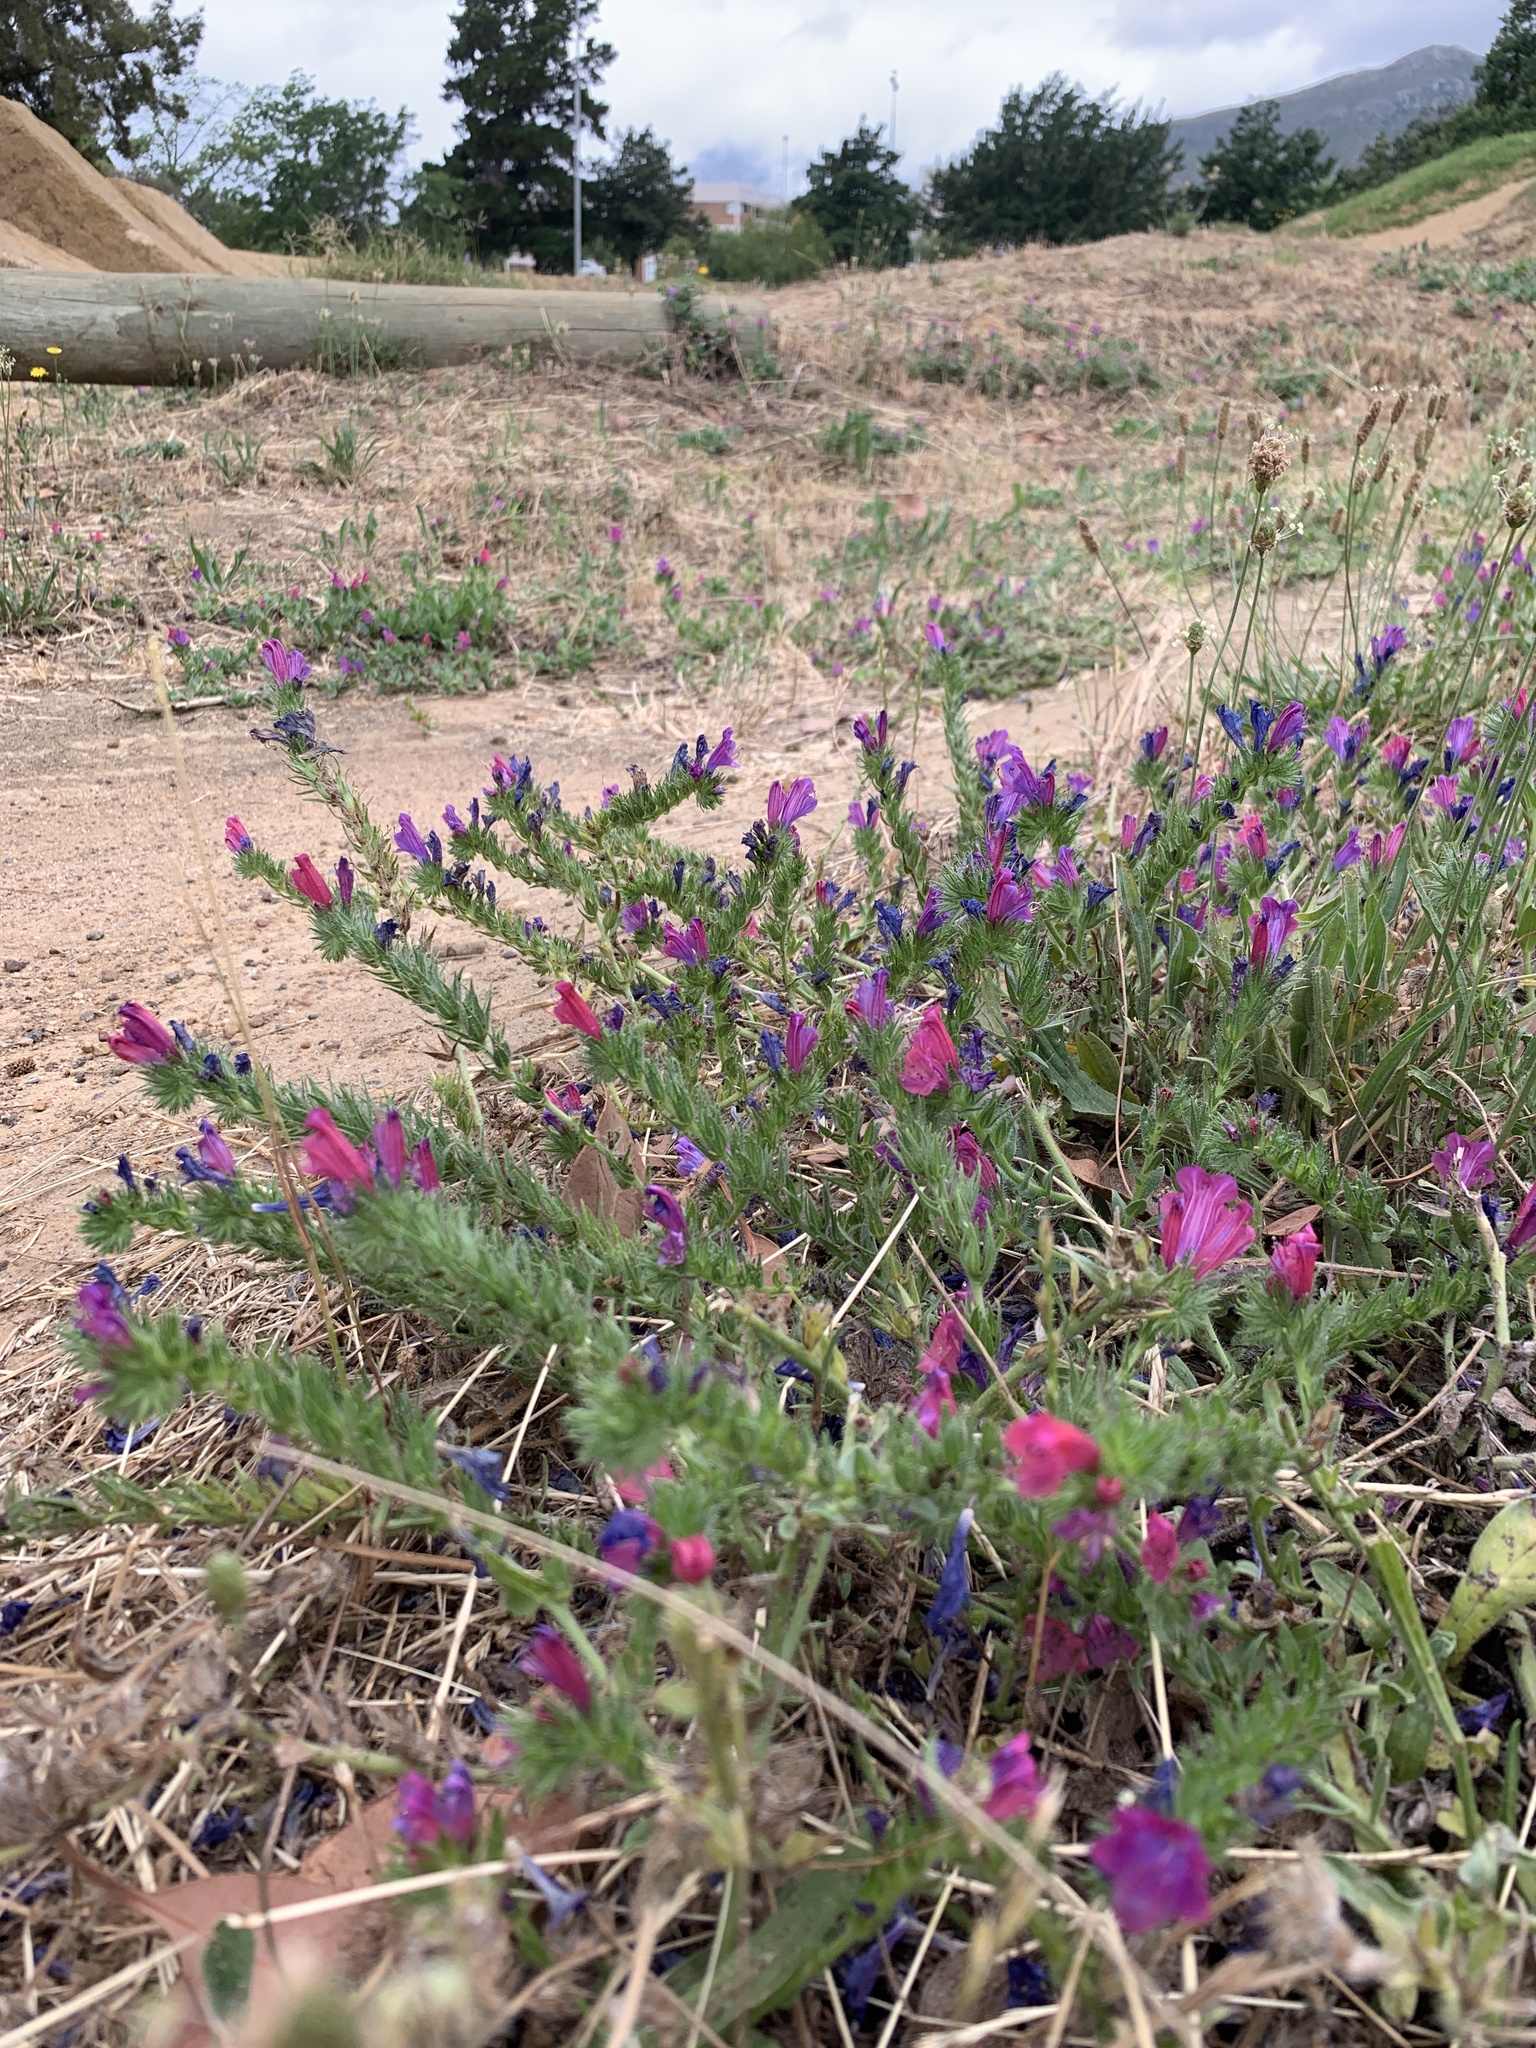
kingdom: Plantae
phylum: Tracheophyta
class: Magnoliopsida
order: Boraginales
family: Boraginaceae
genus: Echium
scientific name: Echium plantagineum
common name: Purple viper's-bugloss
